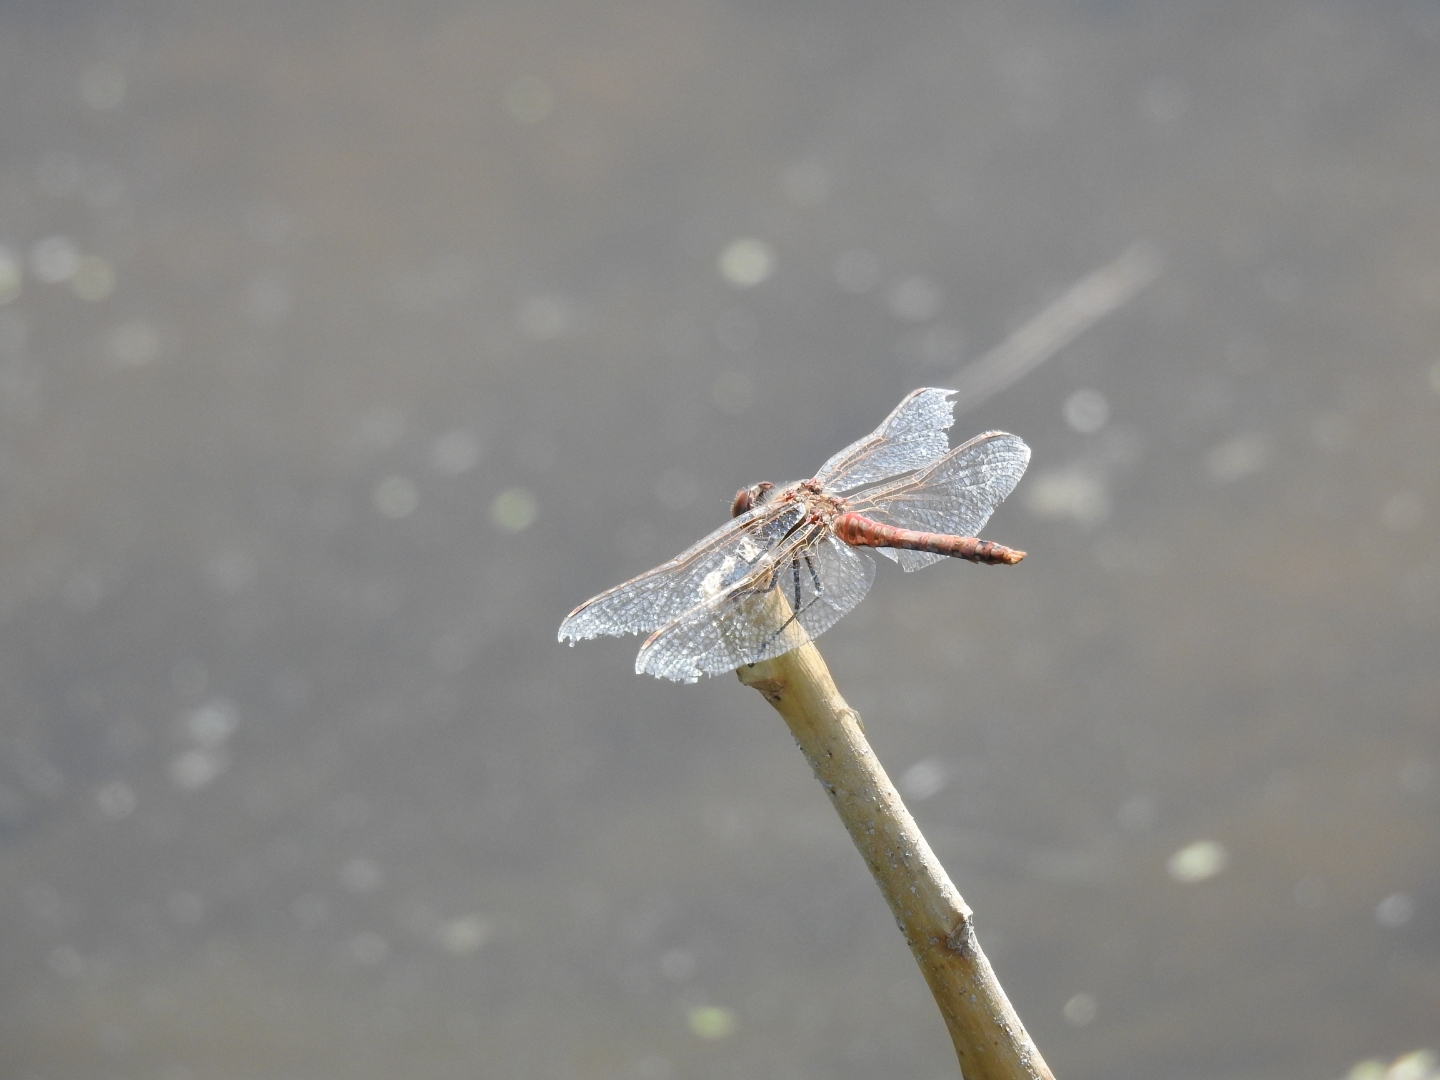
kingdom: Animalia
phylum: Arthropoda
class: Insecta
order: Odonata
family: Libellulidae
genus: Sympetrum
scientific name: Sympetrum corruptum
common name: Variegated meadowhawk
